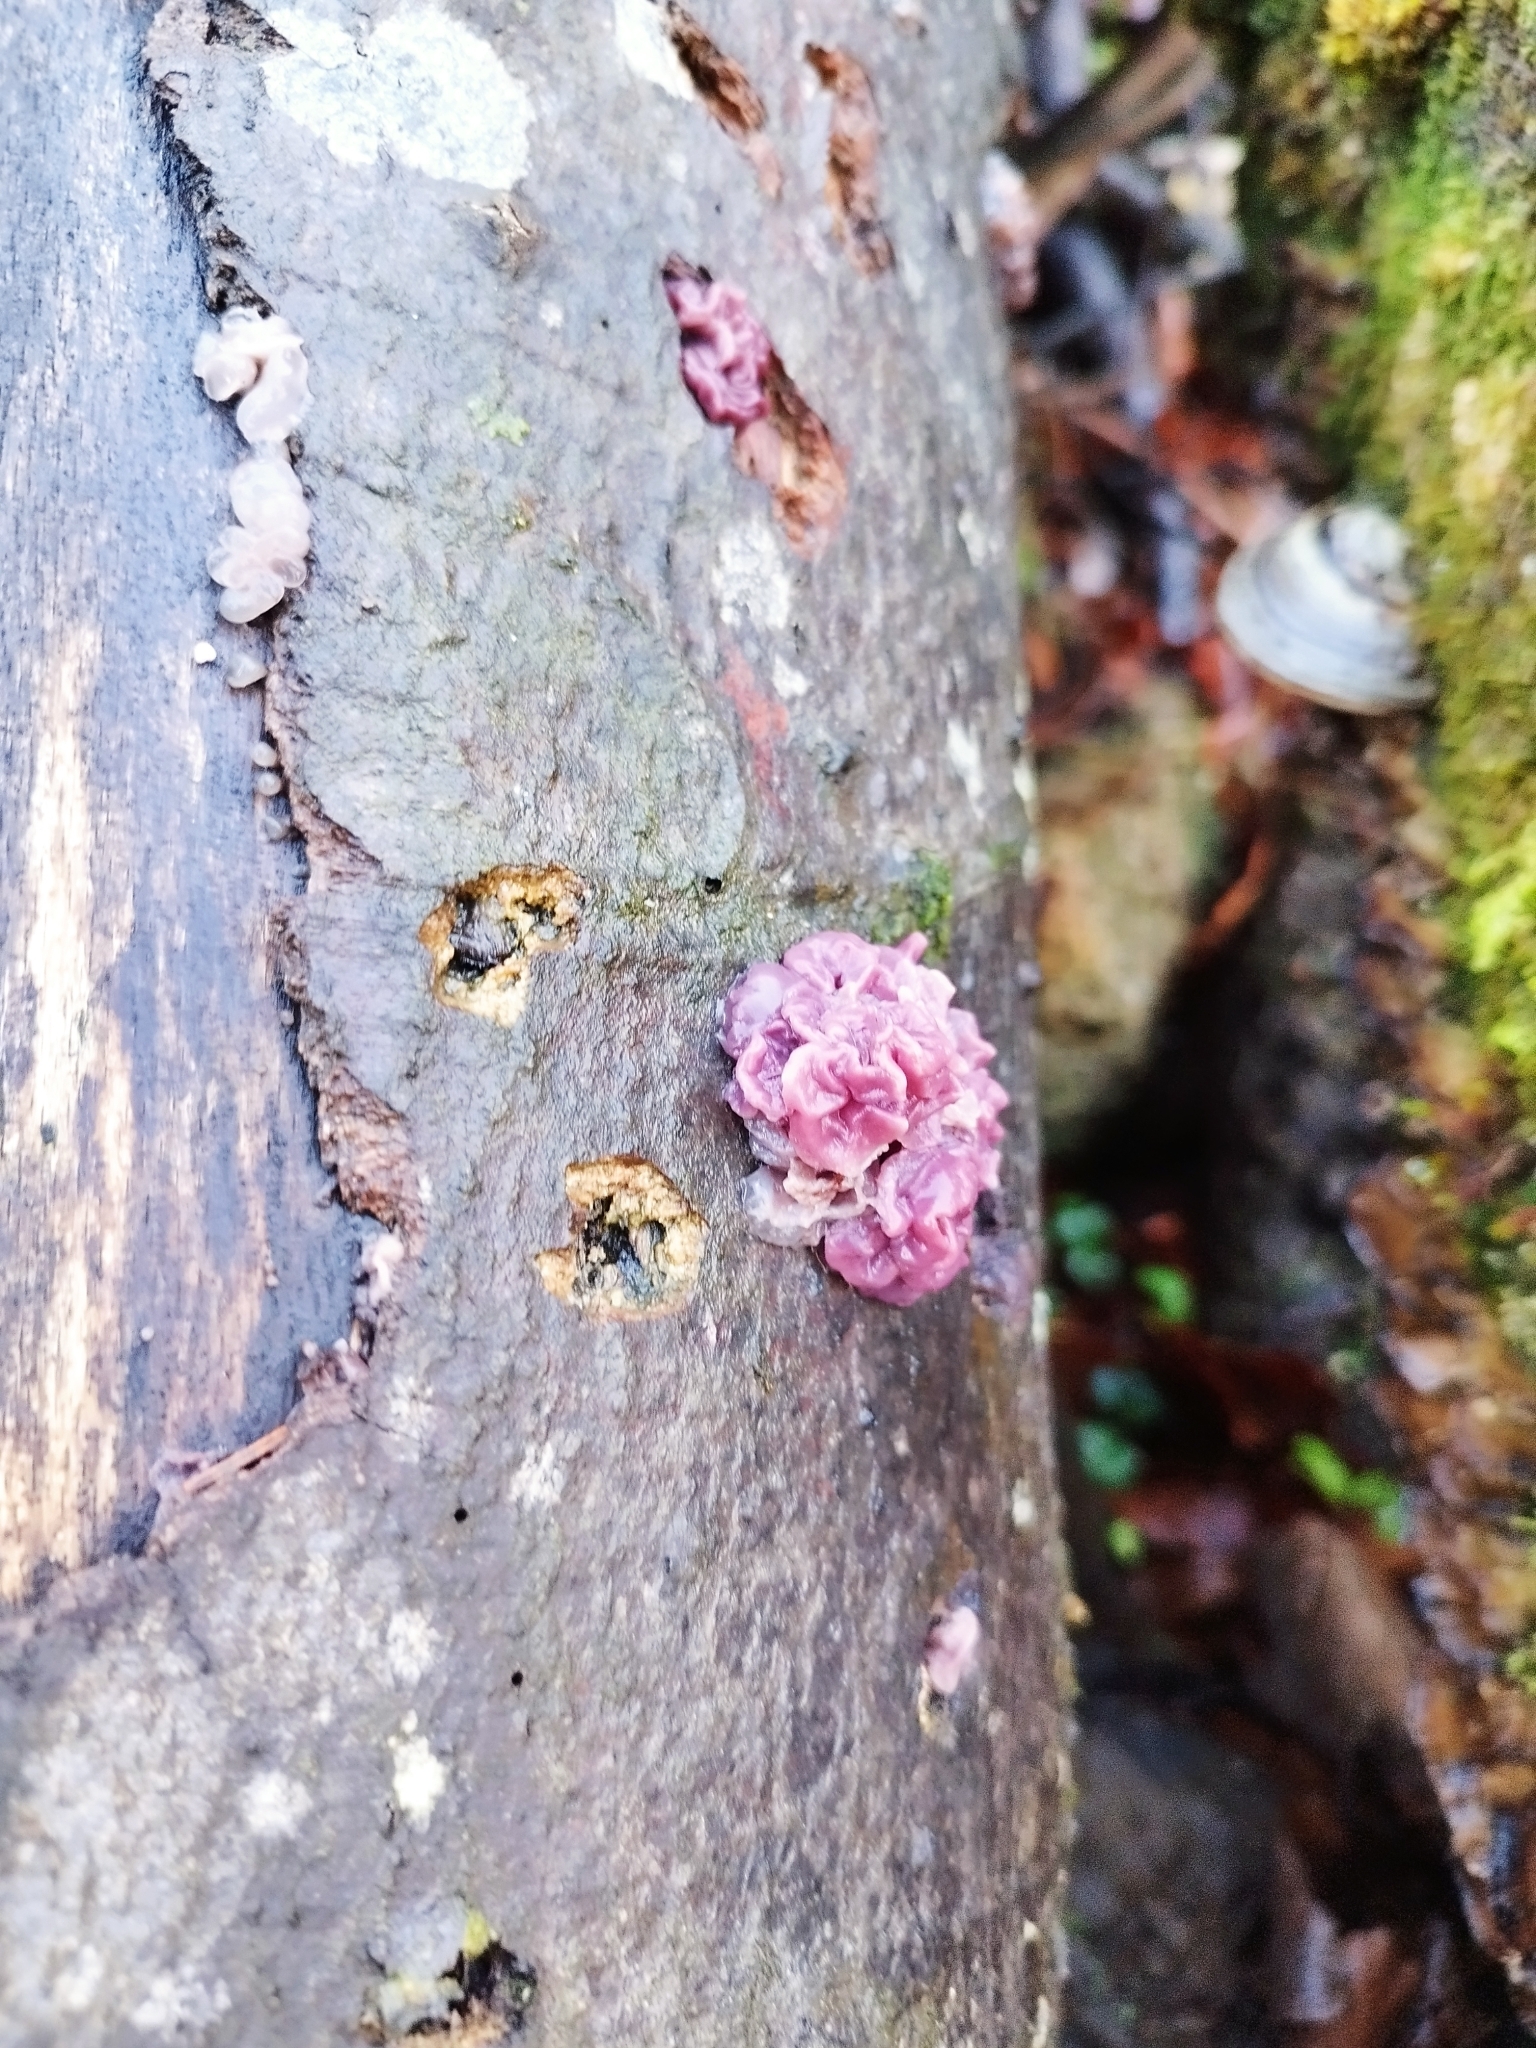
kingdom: Fungi
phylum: Ascomycota
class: Leotiomycetes
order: Helotiales
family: Gelatinodiscaceae
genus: Ascocoryne
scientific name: Ascocoryne sarcoides
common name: Purple jellydisc
